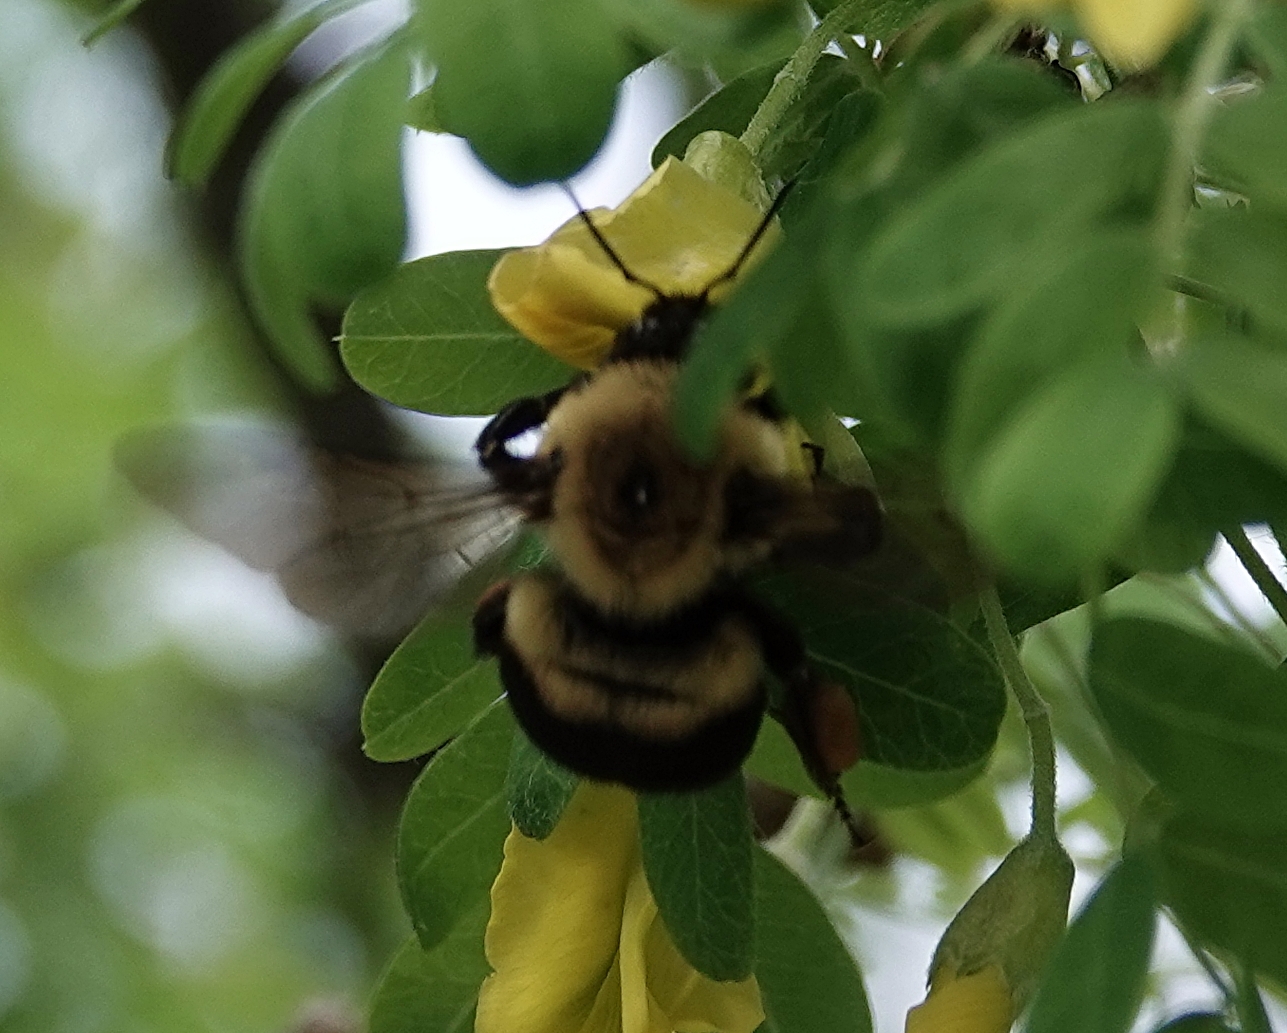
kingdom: Animalia
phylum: Arthropoda
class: Insecta
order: Hymenoptera
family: Apidae
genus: Bombus
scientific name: Bombus griseocollis
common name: Brown-belted bumble bee
